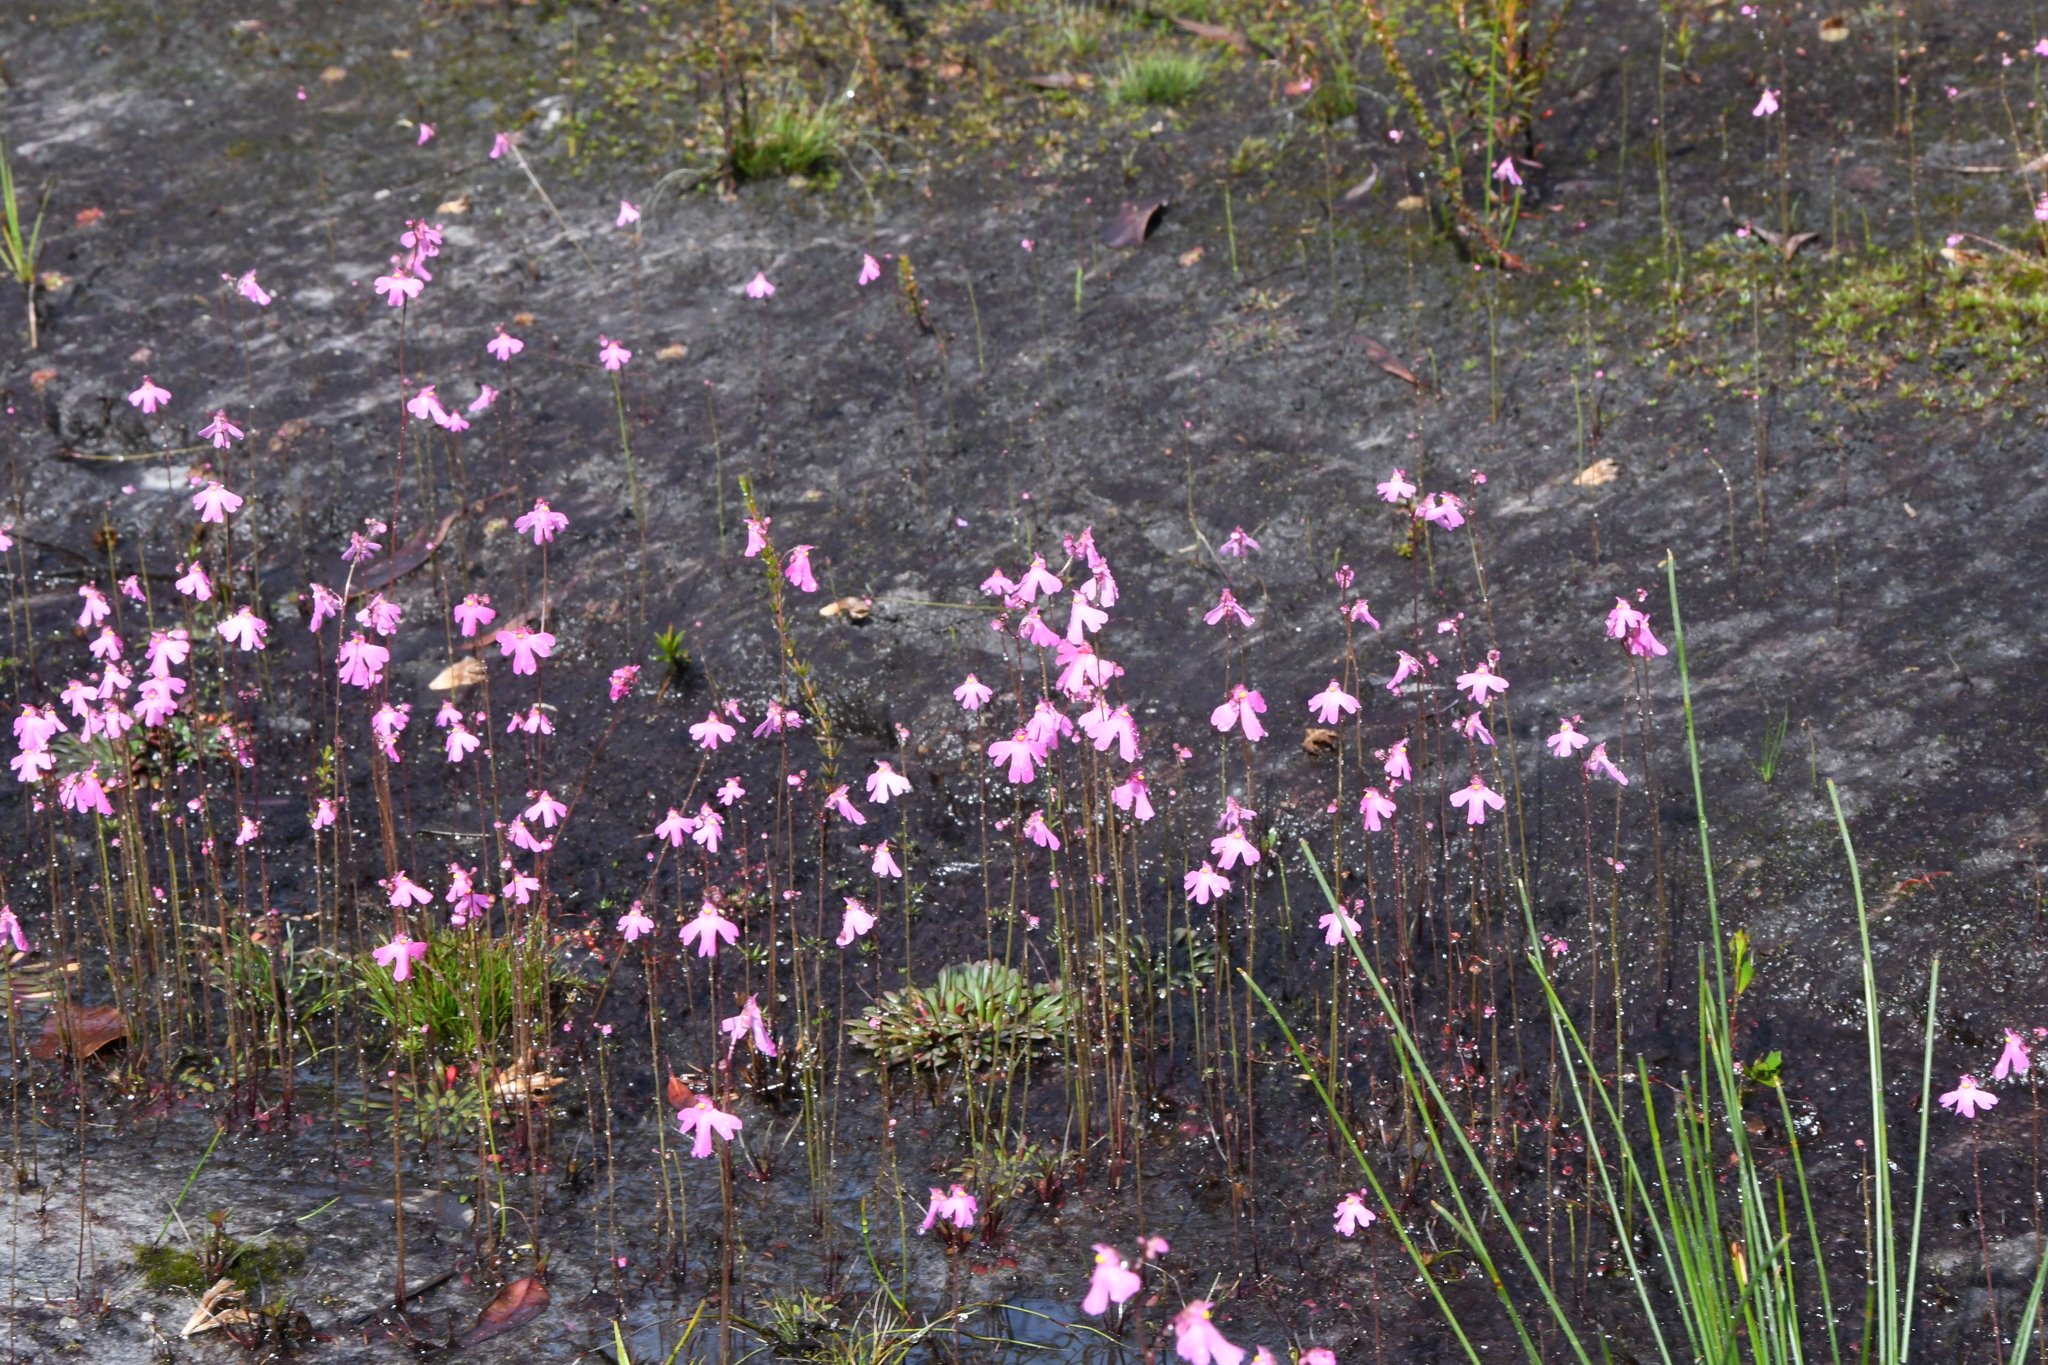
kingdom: Plantae
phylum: Tracheophyta
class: Magnoliopsida
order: Lamiales
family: Lentibulariaceae
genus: Utricularia
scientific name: Utricularia multifida
